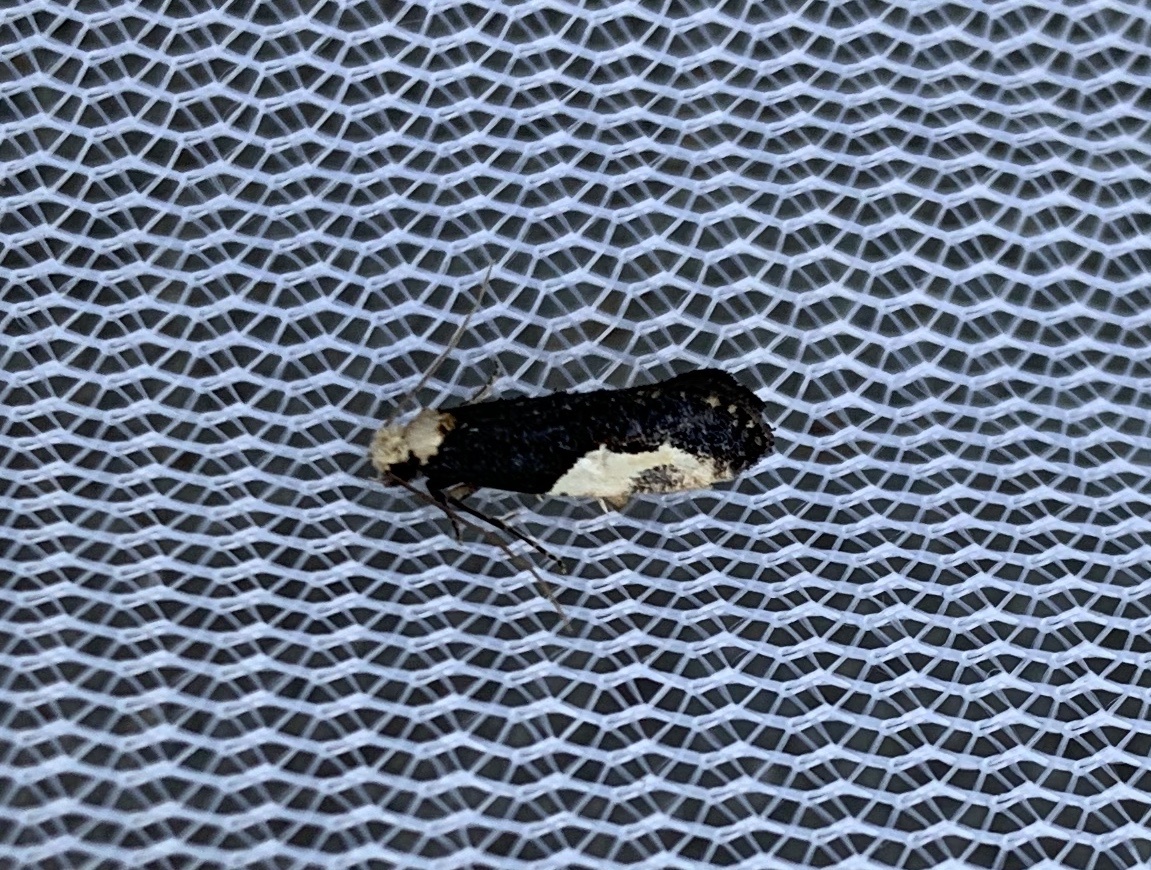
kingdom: Animalia
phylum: Arthropoda
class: Insecta
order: Lepidoptera
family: Tineidae
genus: Monopis
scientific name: Monopis longella
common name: Pavlovski's monopis moth
